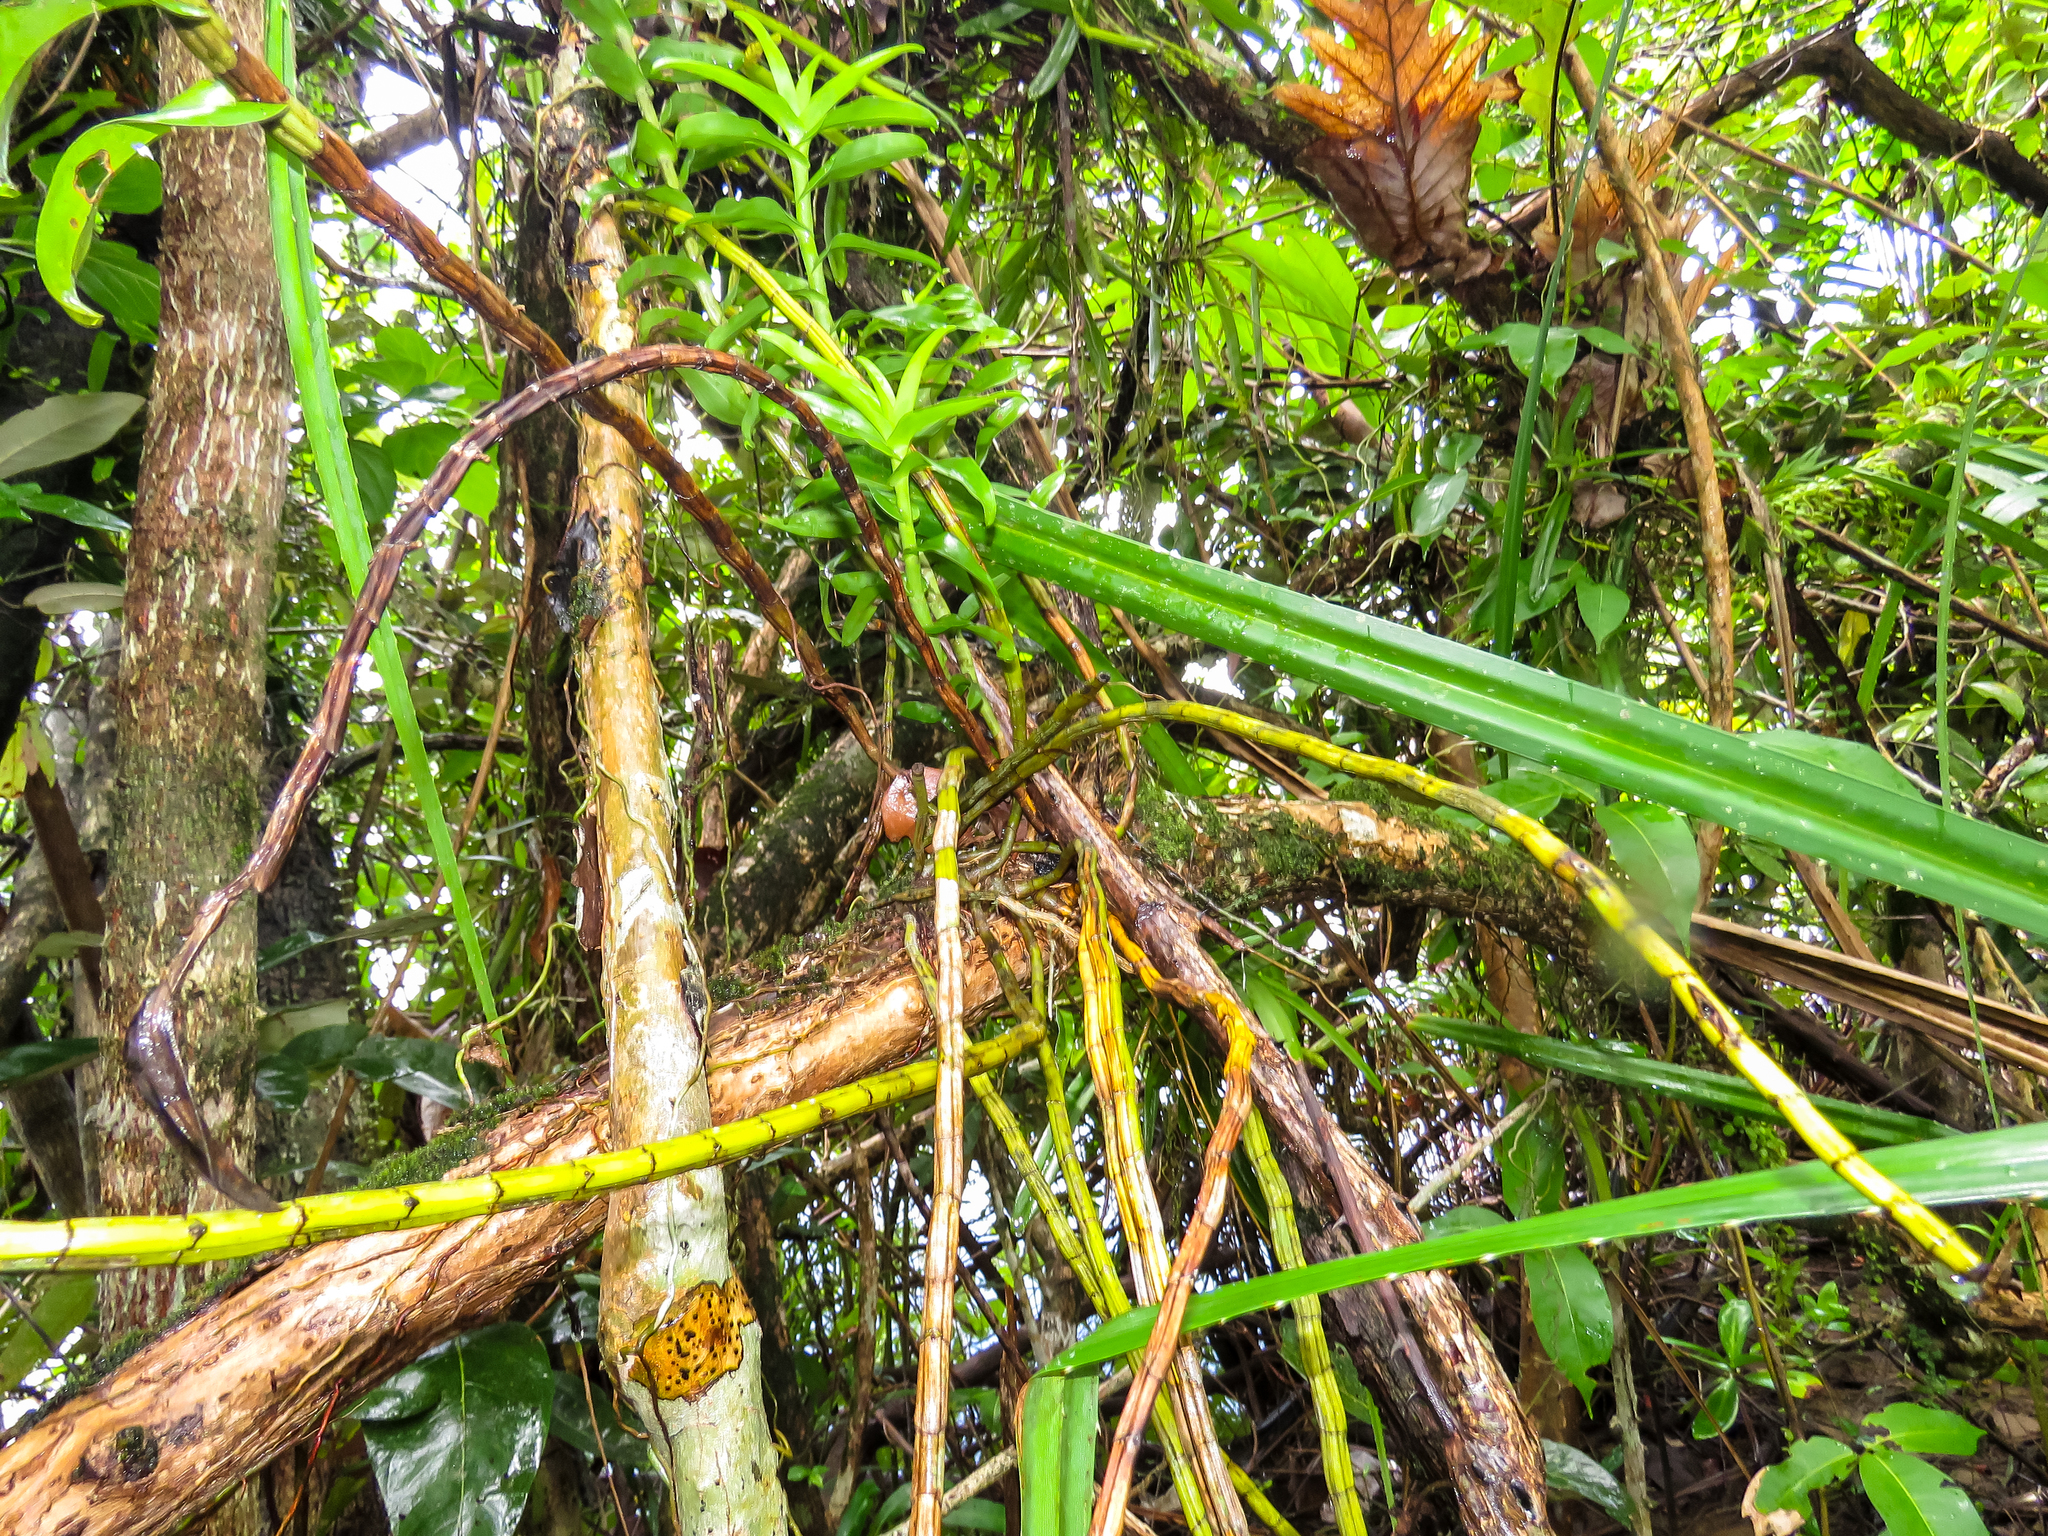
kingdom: Plantae
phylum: Tracheophyta
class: Liliopsida
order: Asparagales
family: Orchidaceae
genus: Dendrobium
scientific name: Dendrobium ellipsophyllum
